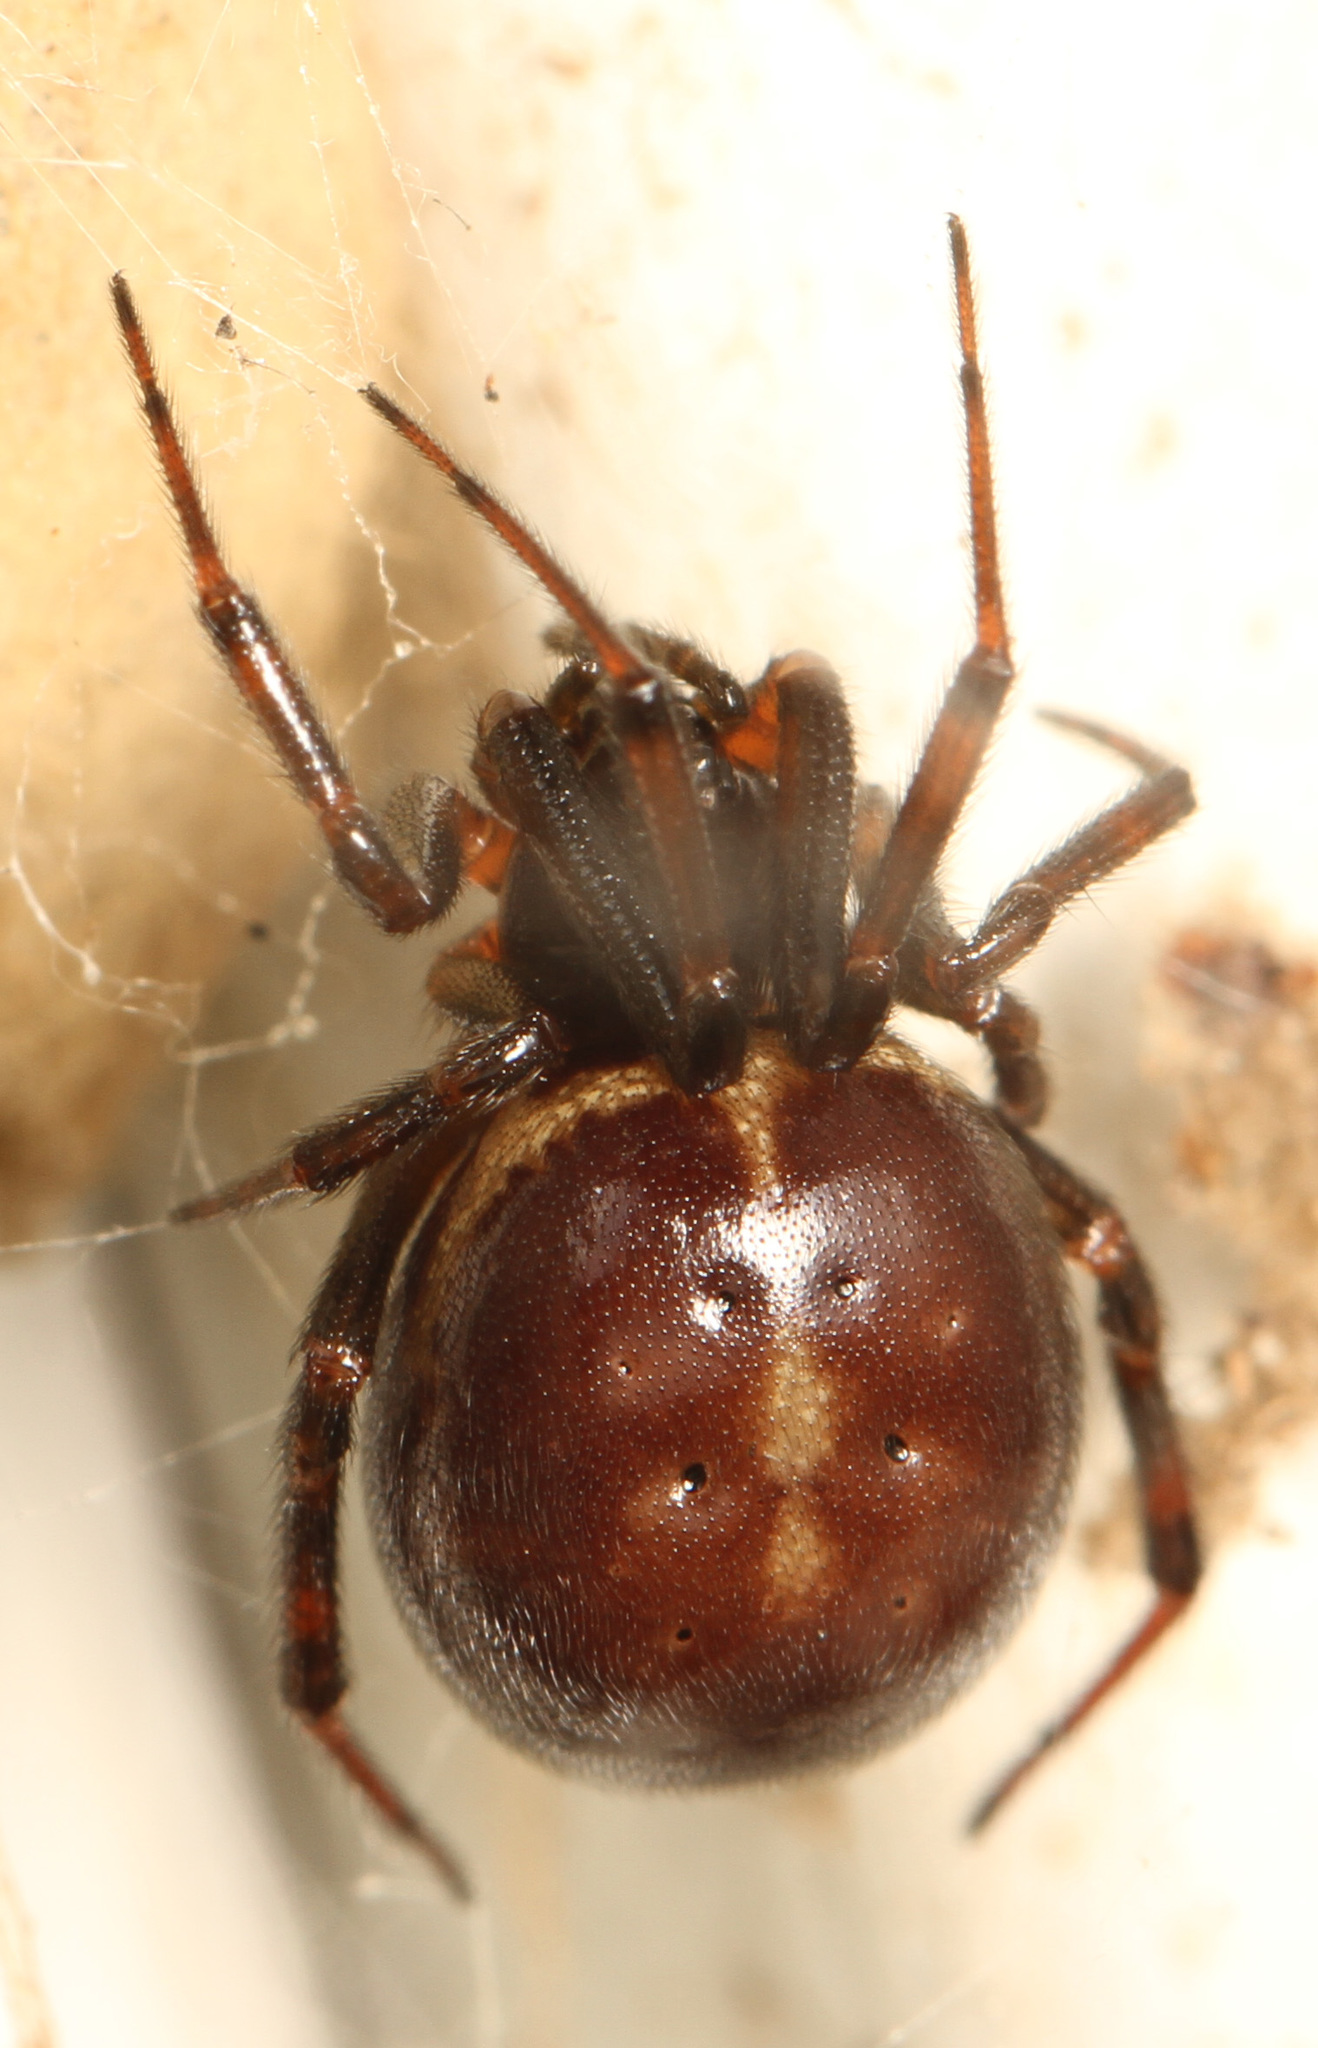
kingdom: Animalia
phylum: Arthropoda
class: Arachnida
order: Araneae
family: Theridiidae
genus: Steatoda
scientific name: Steatoda borealis
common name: Boreal combfoot
